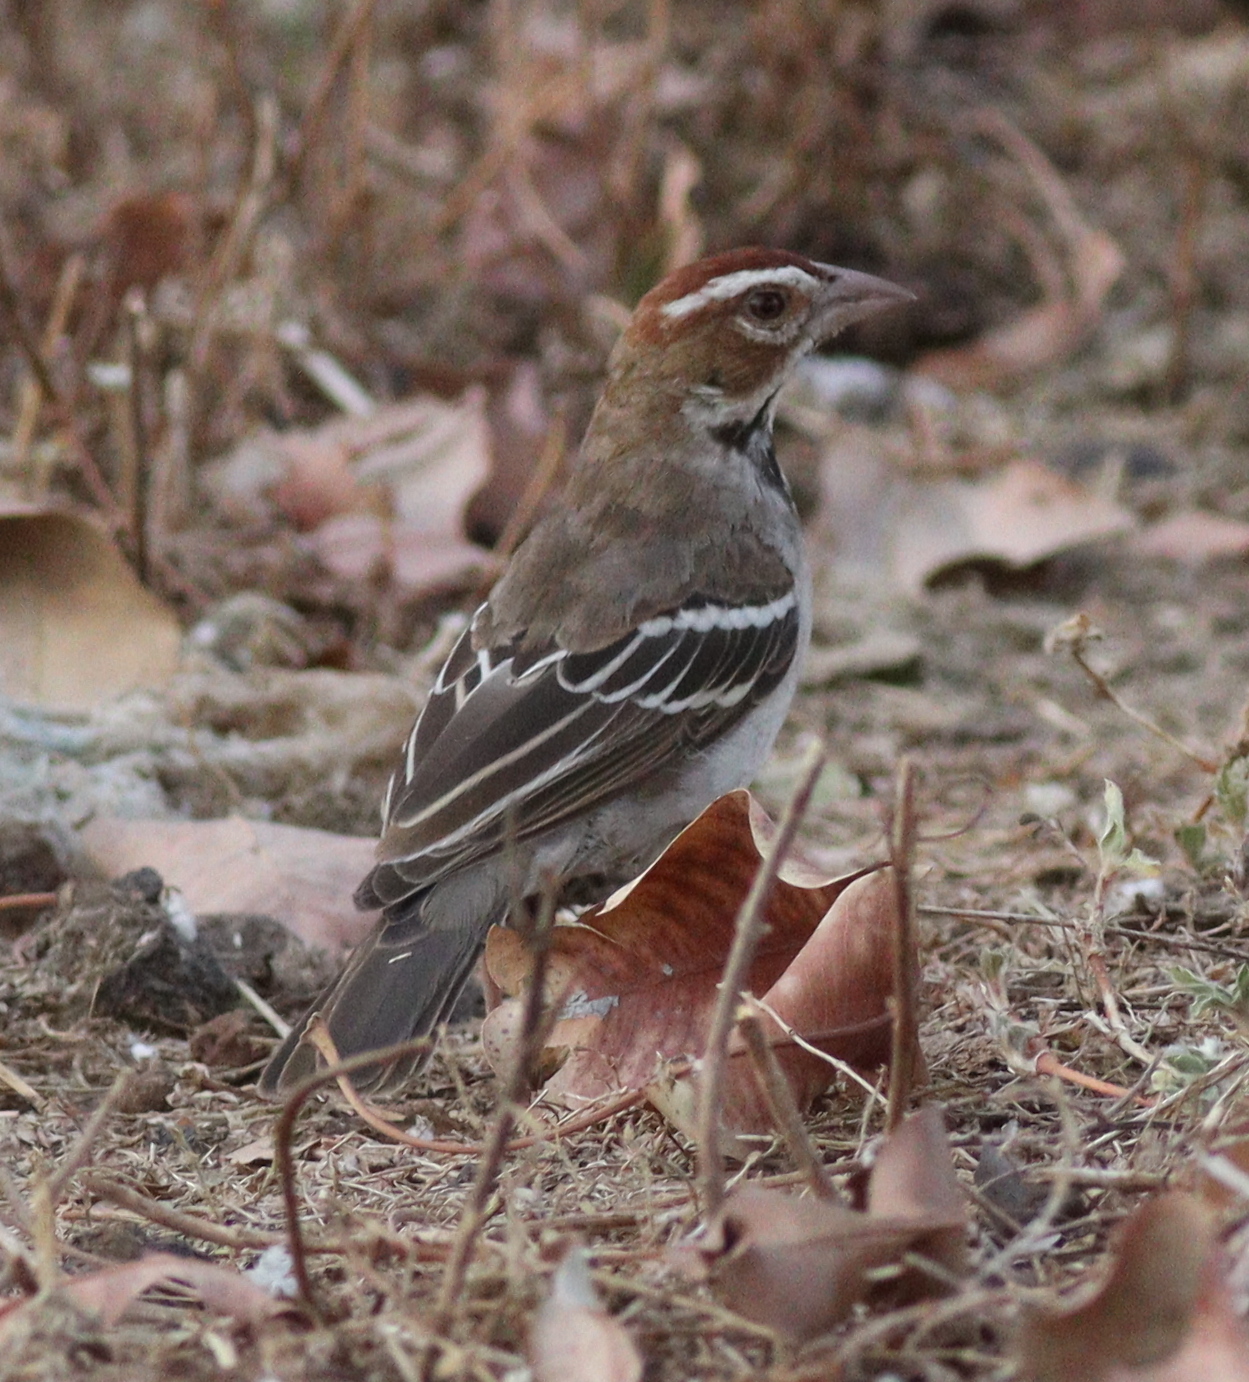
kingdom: Animalia
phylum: Chordata
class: Aves
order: Passeriformes
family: Passeridae
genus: Plocepasser
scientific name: Plocepasser superciliosus
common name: Chestnut-crowned sparrow-weaver
